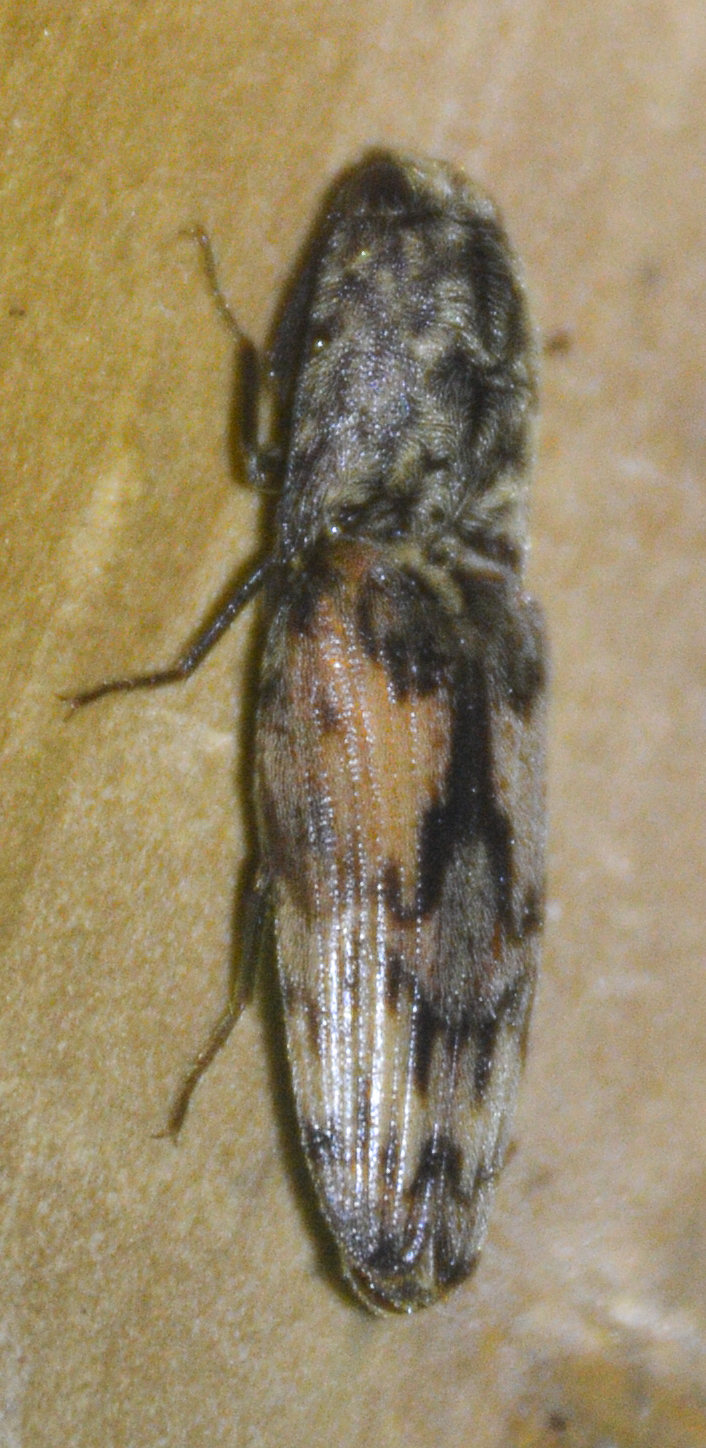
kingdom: Animalia
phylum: Arthropoda
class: Insecta
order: Coleoptera
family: Elateridae
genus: Pherhimius
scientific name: Pherhimius fascicularis
